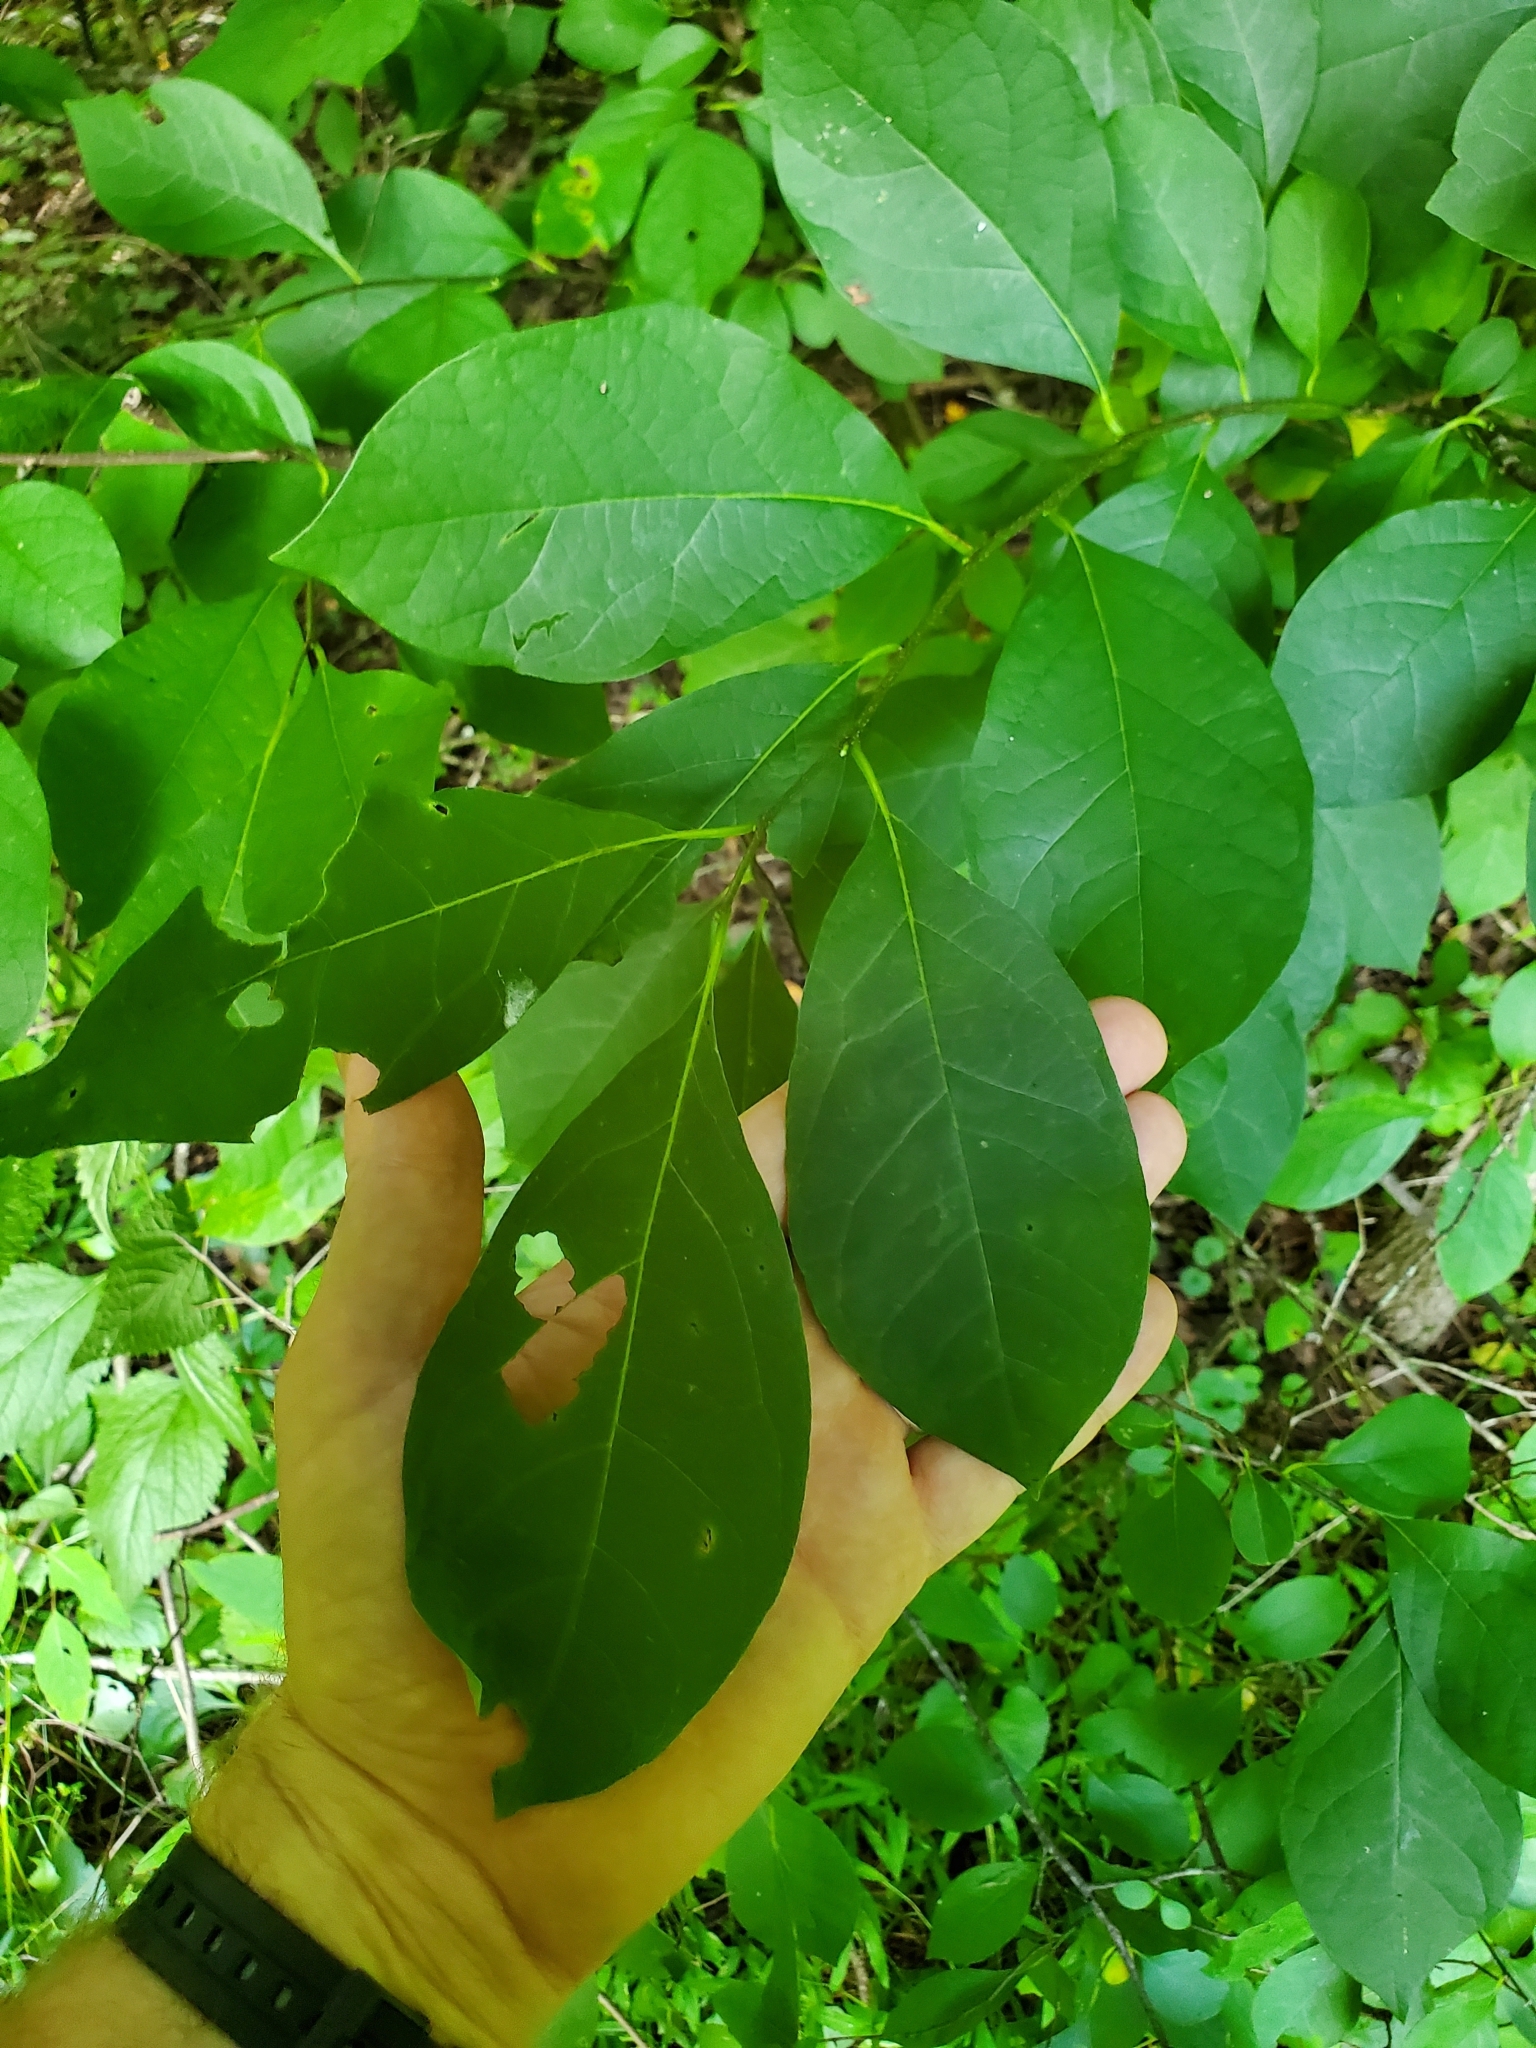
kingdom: Plantae
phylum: Tracheophyta
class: Magnoliopsida
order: Laurales
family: Lauraceae
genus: Lindera
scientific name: Lindera benzoin
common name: Spicebush
